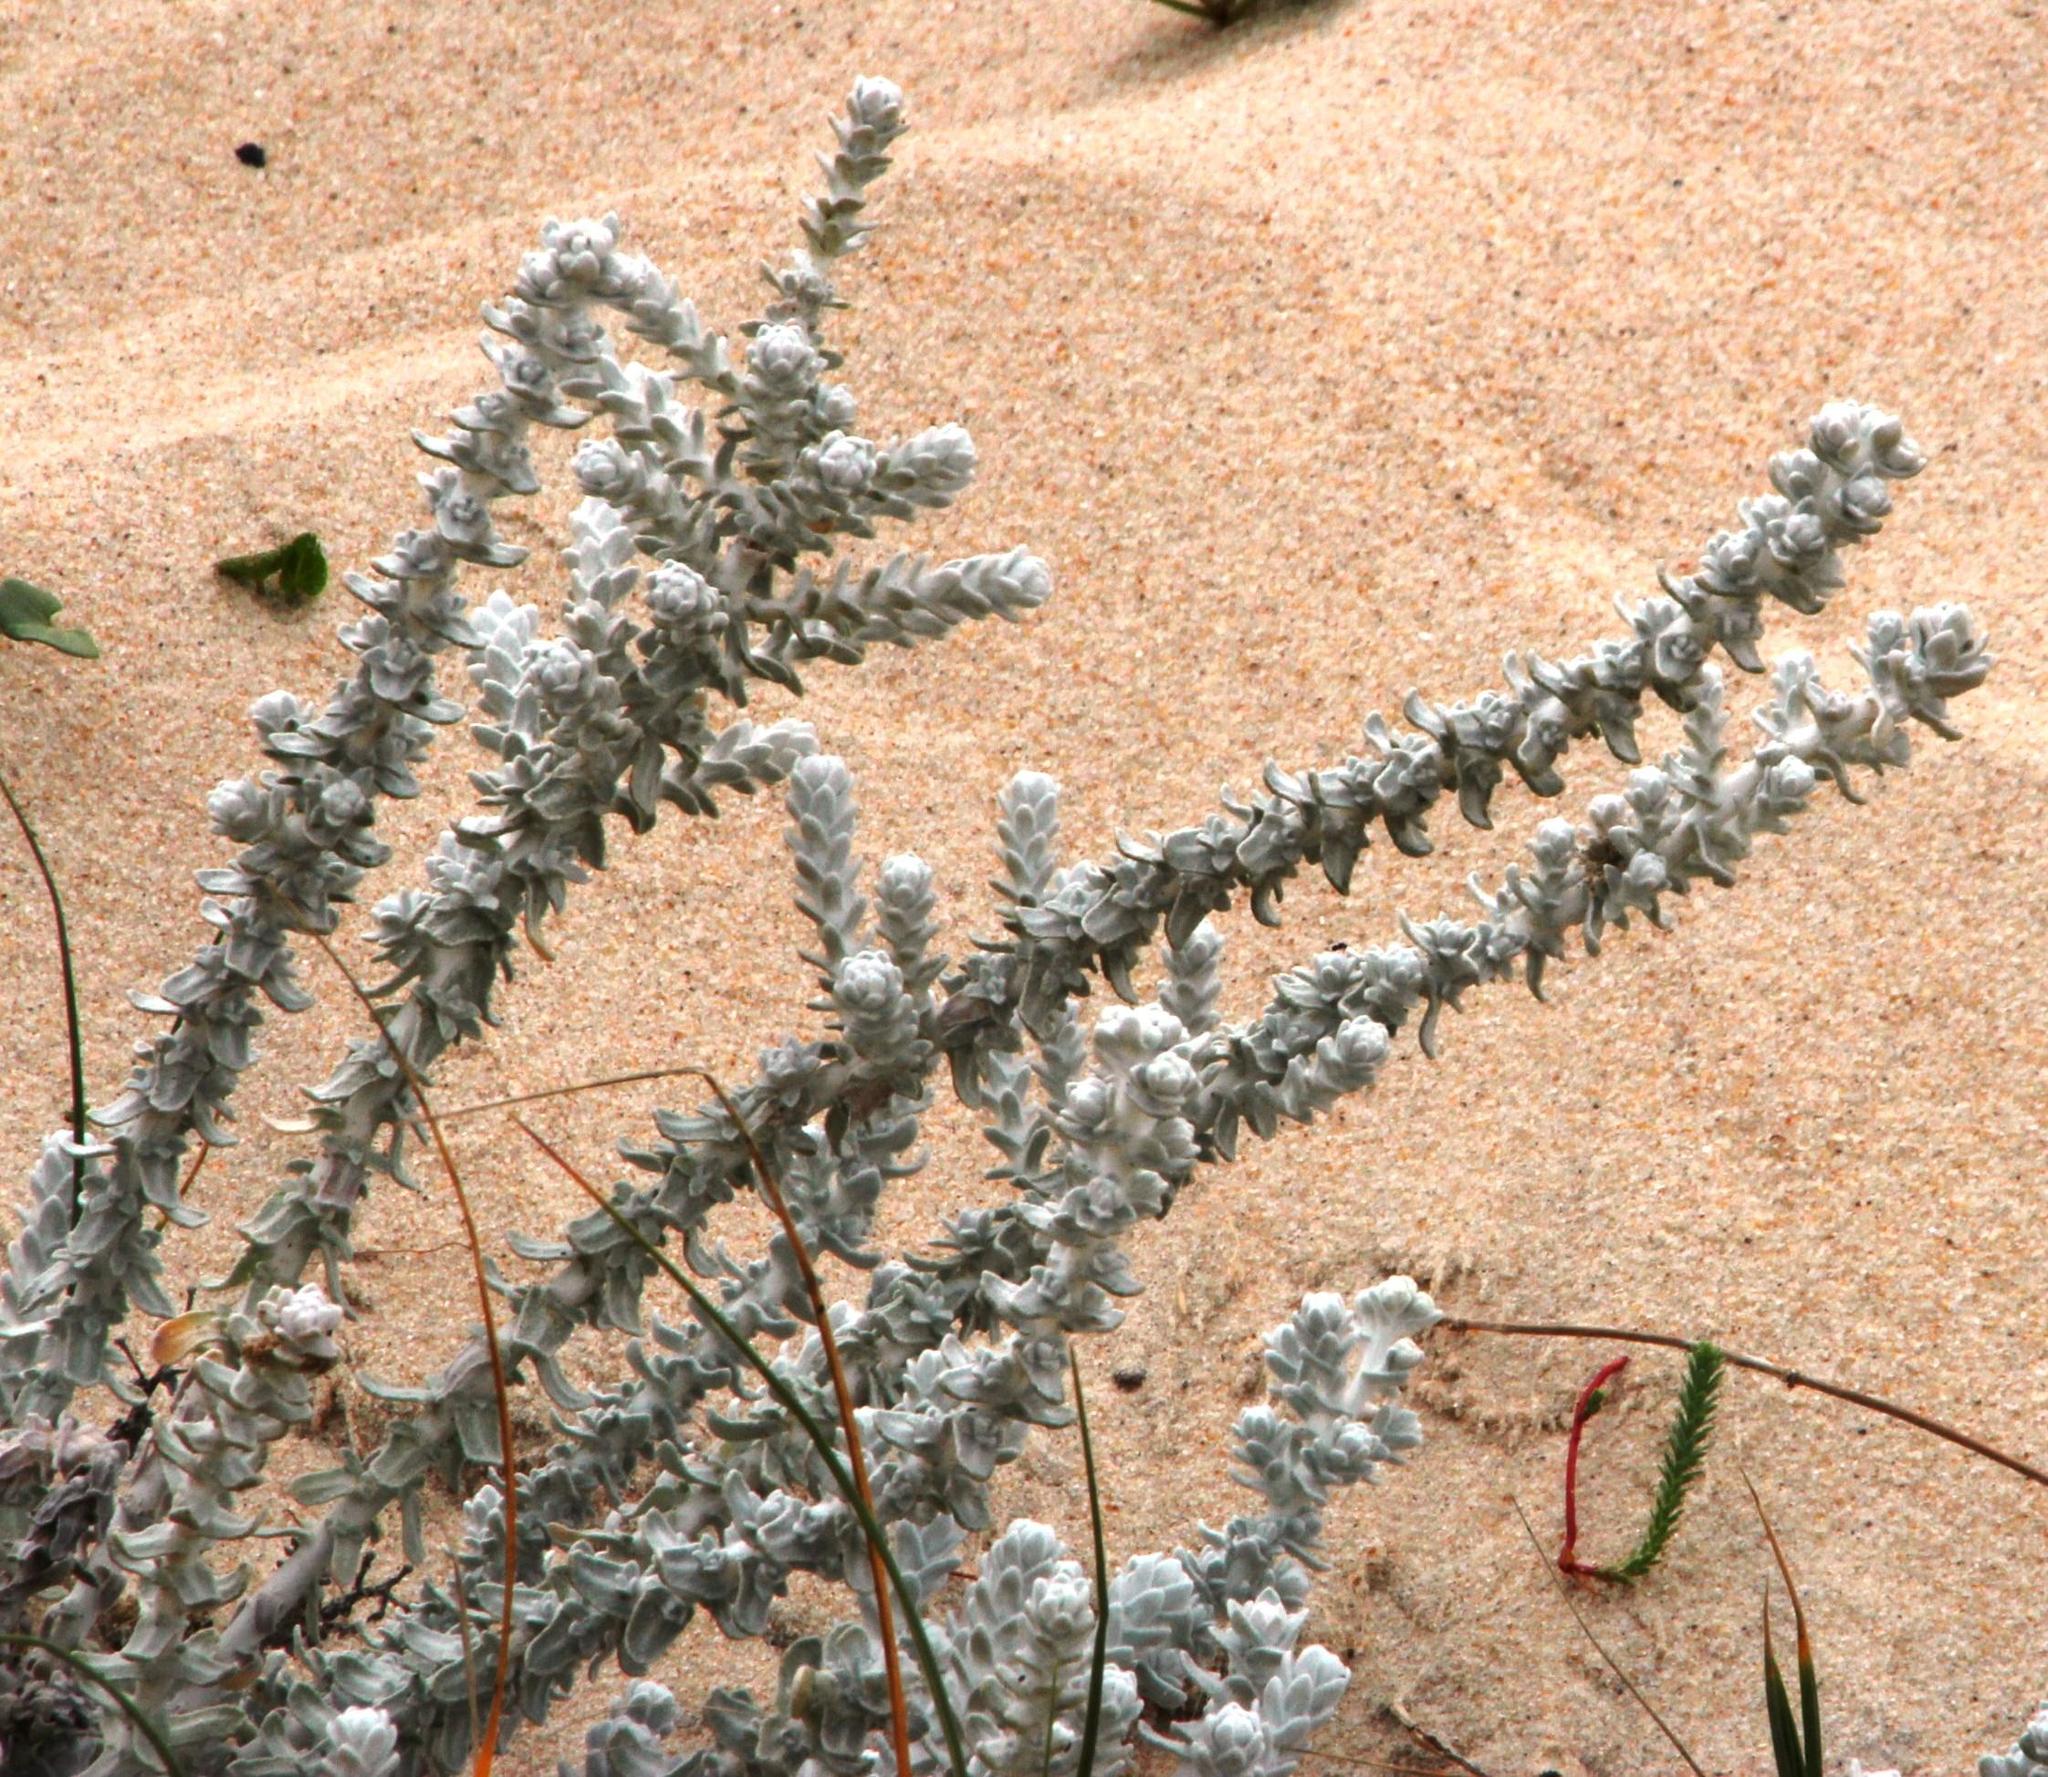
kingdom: Plantae
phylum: Tracheophyta
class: Magnoliopsida
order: Asterales
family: Asteraceae
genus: Achillea
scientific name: Achillea maritima
